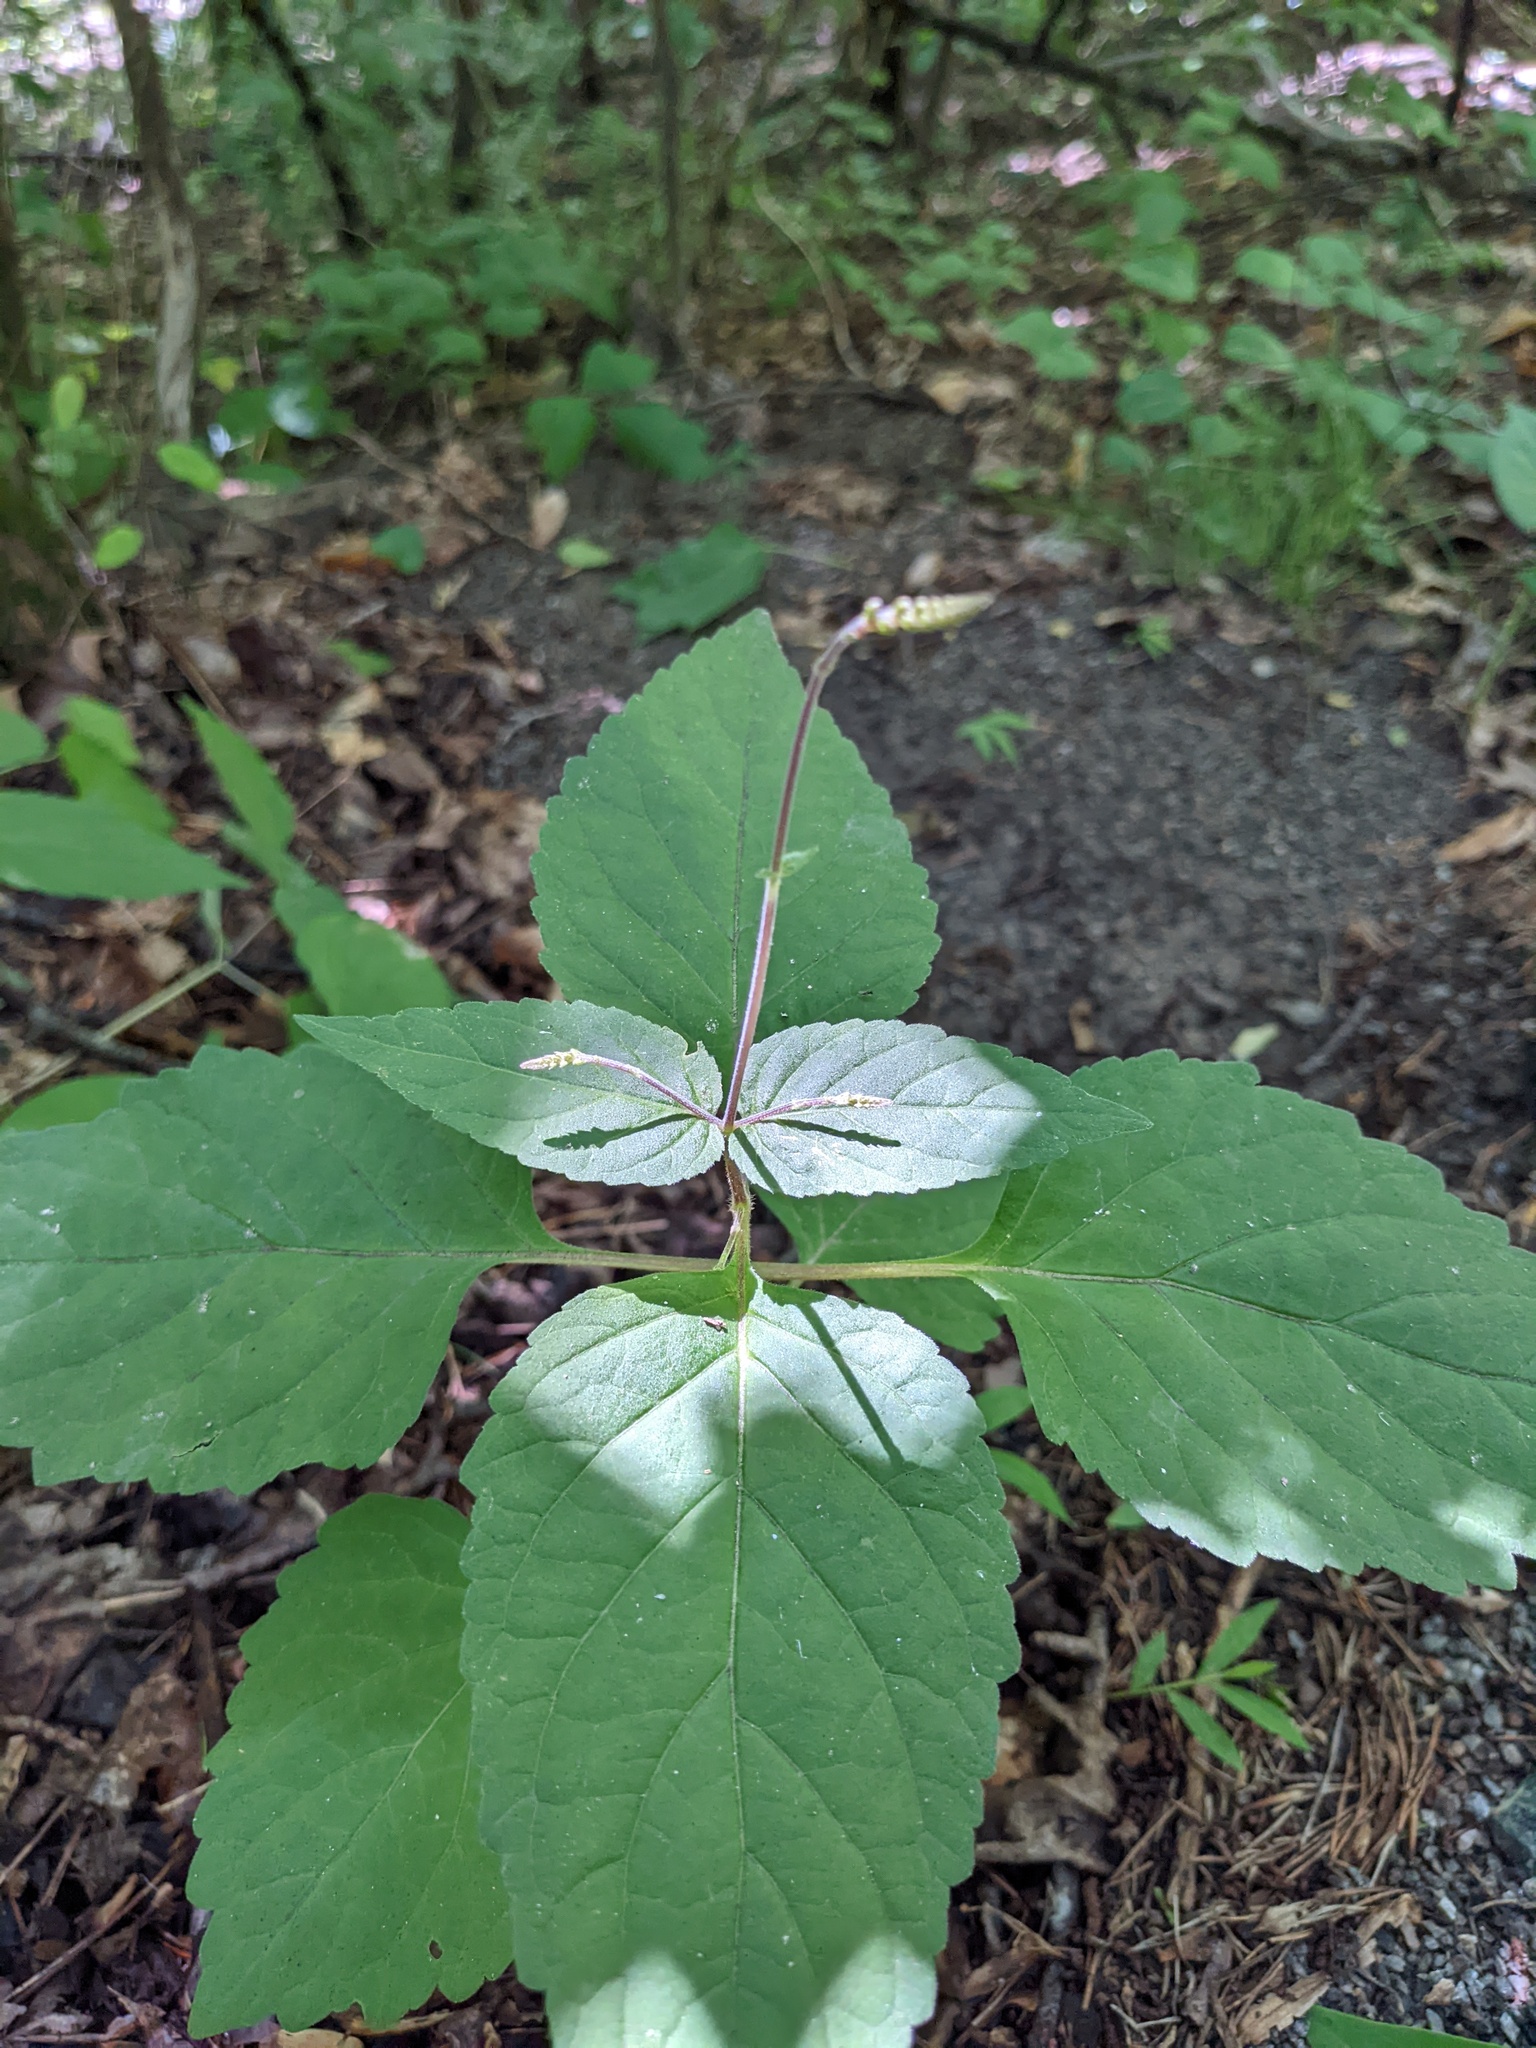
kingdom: Plantae
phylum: Tracheophyta
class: Magnoliopsida
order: Lamiales
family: Phrymaceae
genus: Phryma
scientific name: Phryma leptostachya
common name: American lopseed
